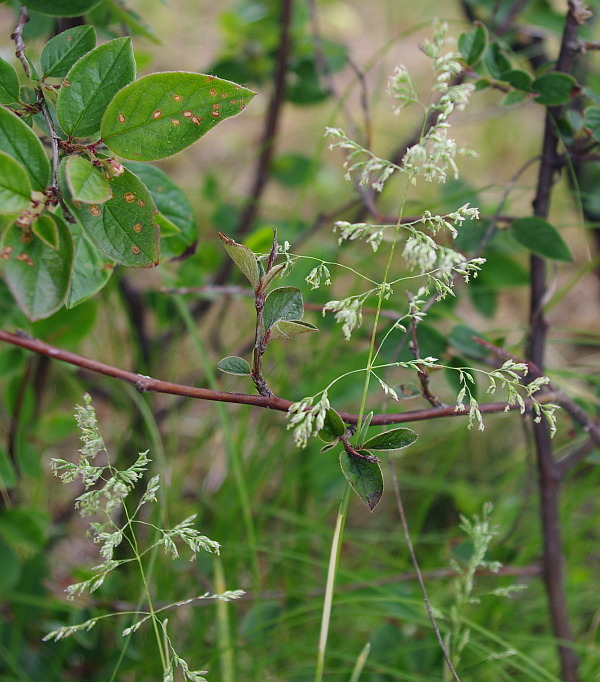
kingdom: Plantae
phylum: Tracheophyta
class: Liliopsida
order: Poales
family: Poaceae
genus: Poa
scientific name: Poa pratensis
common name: Kentucky bluegrass
